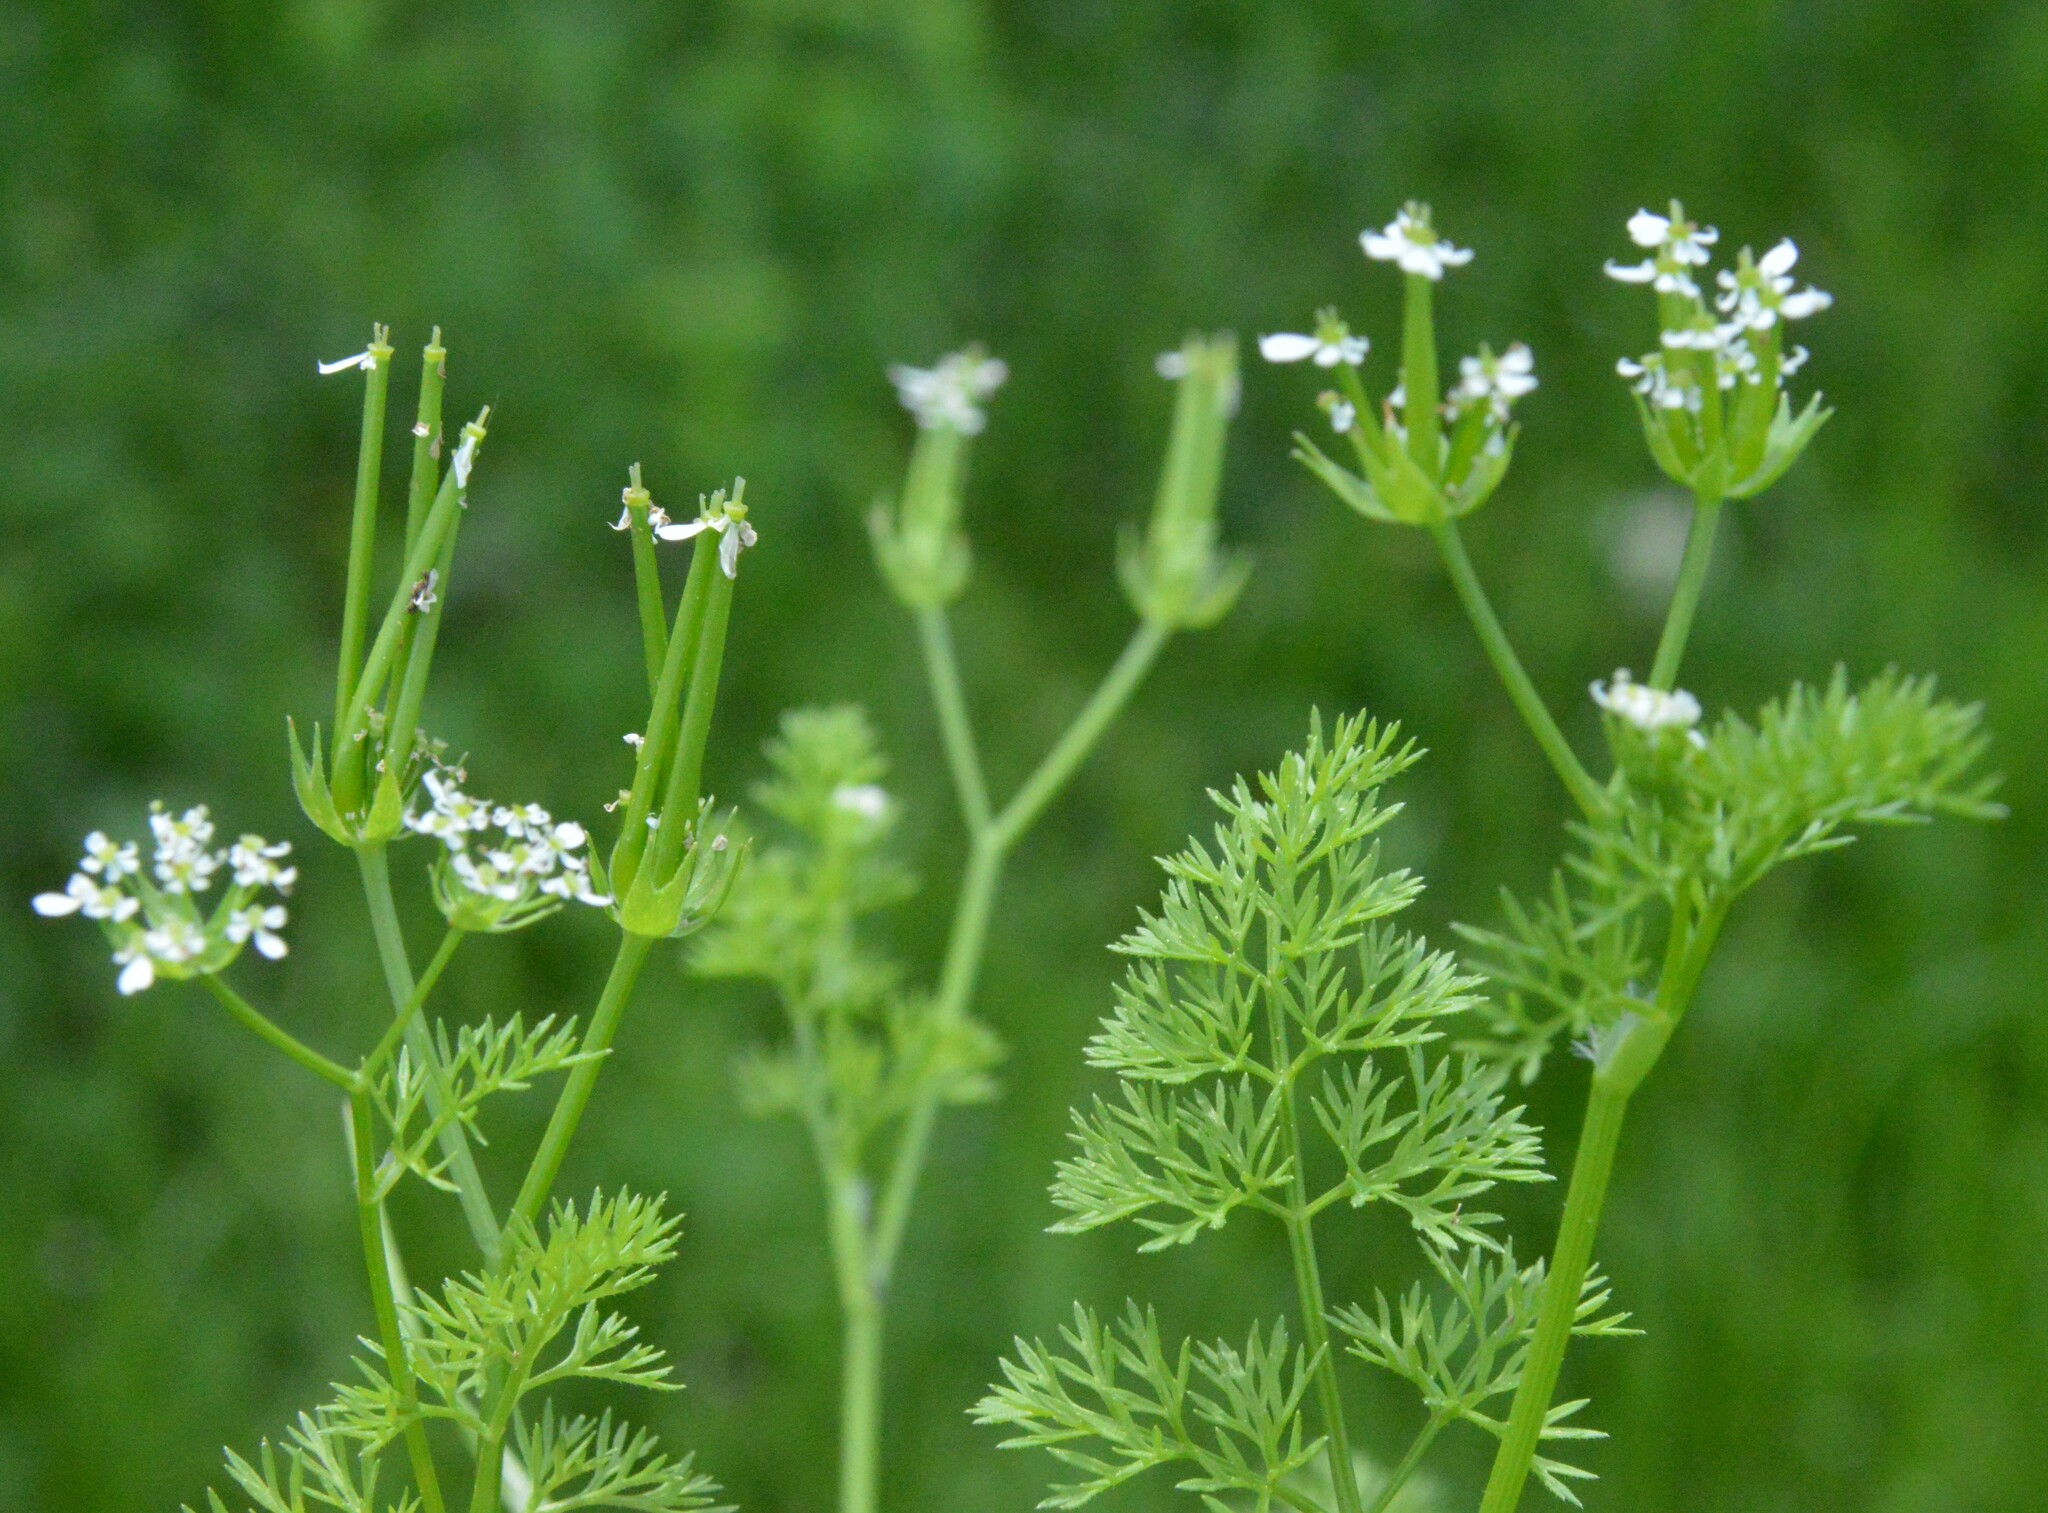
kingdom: Plantae
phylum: Tracheophyta
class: Magnoliopsida
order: Apiales
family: Apiaceae
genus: Scandix
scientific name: Scandix pecten-veneris
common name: Shepherd's-needle
